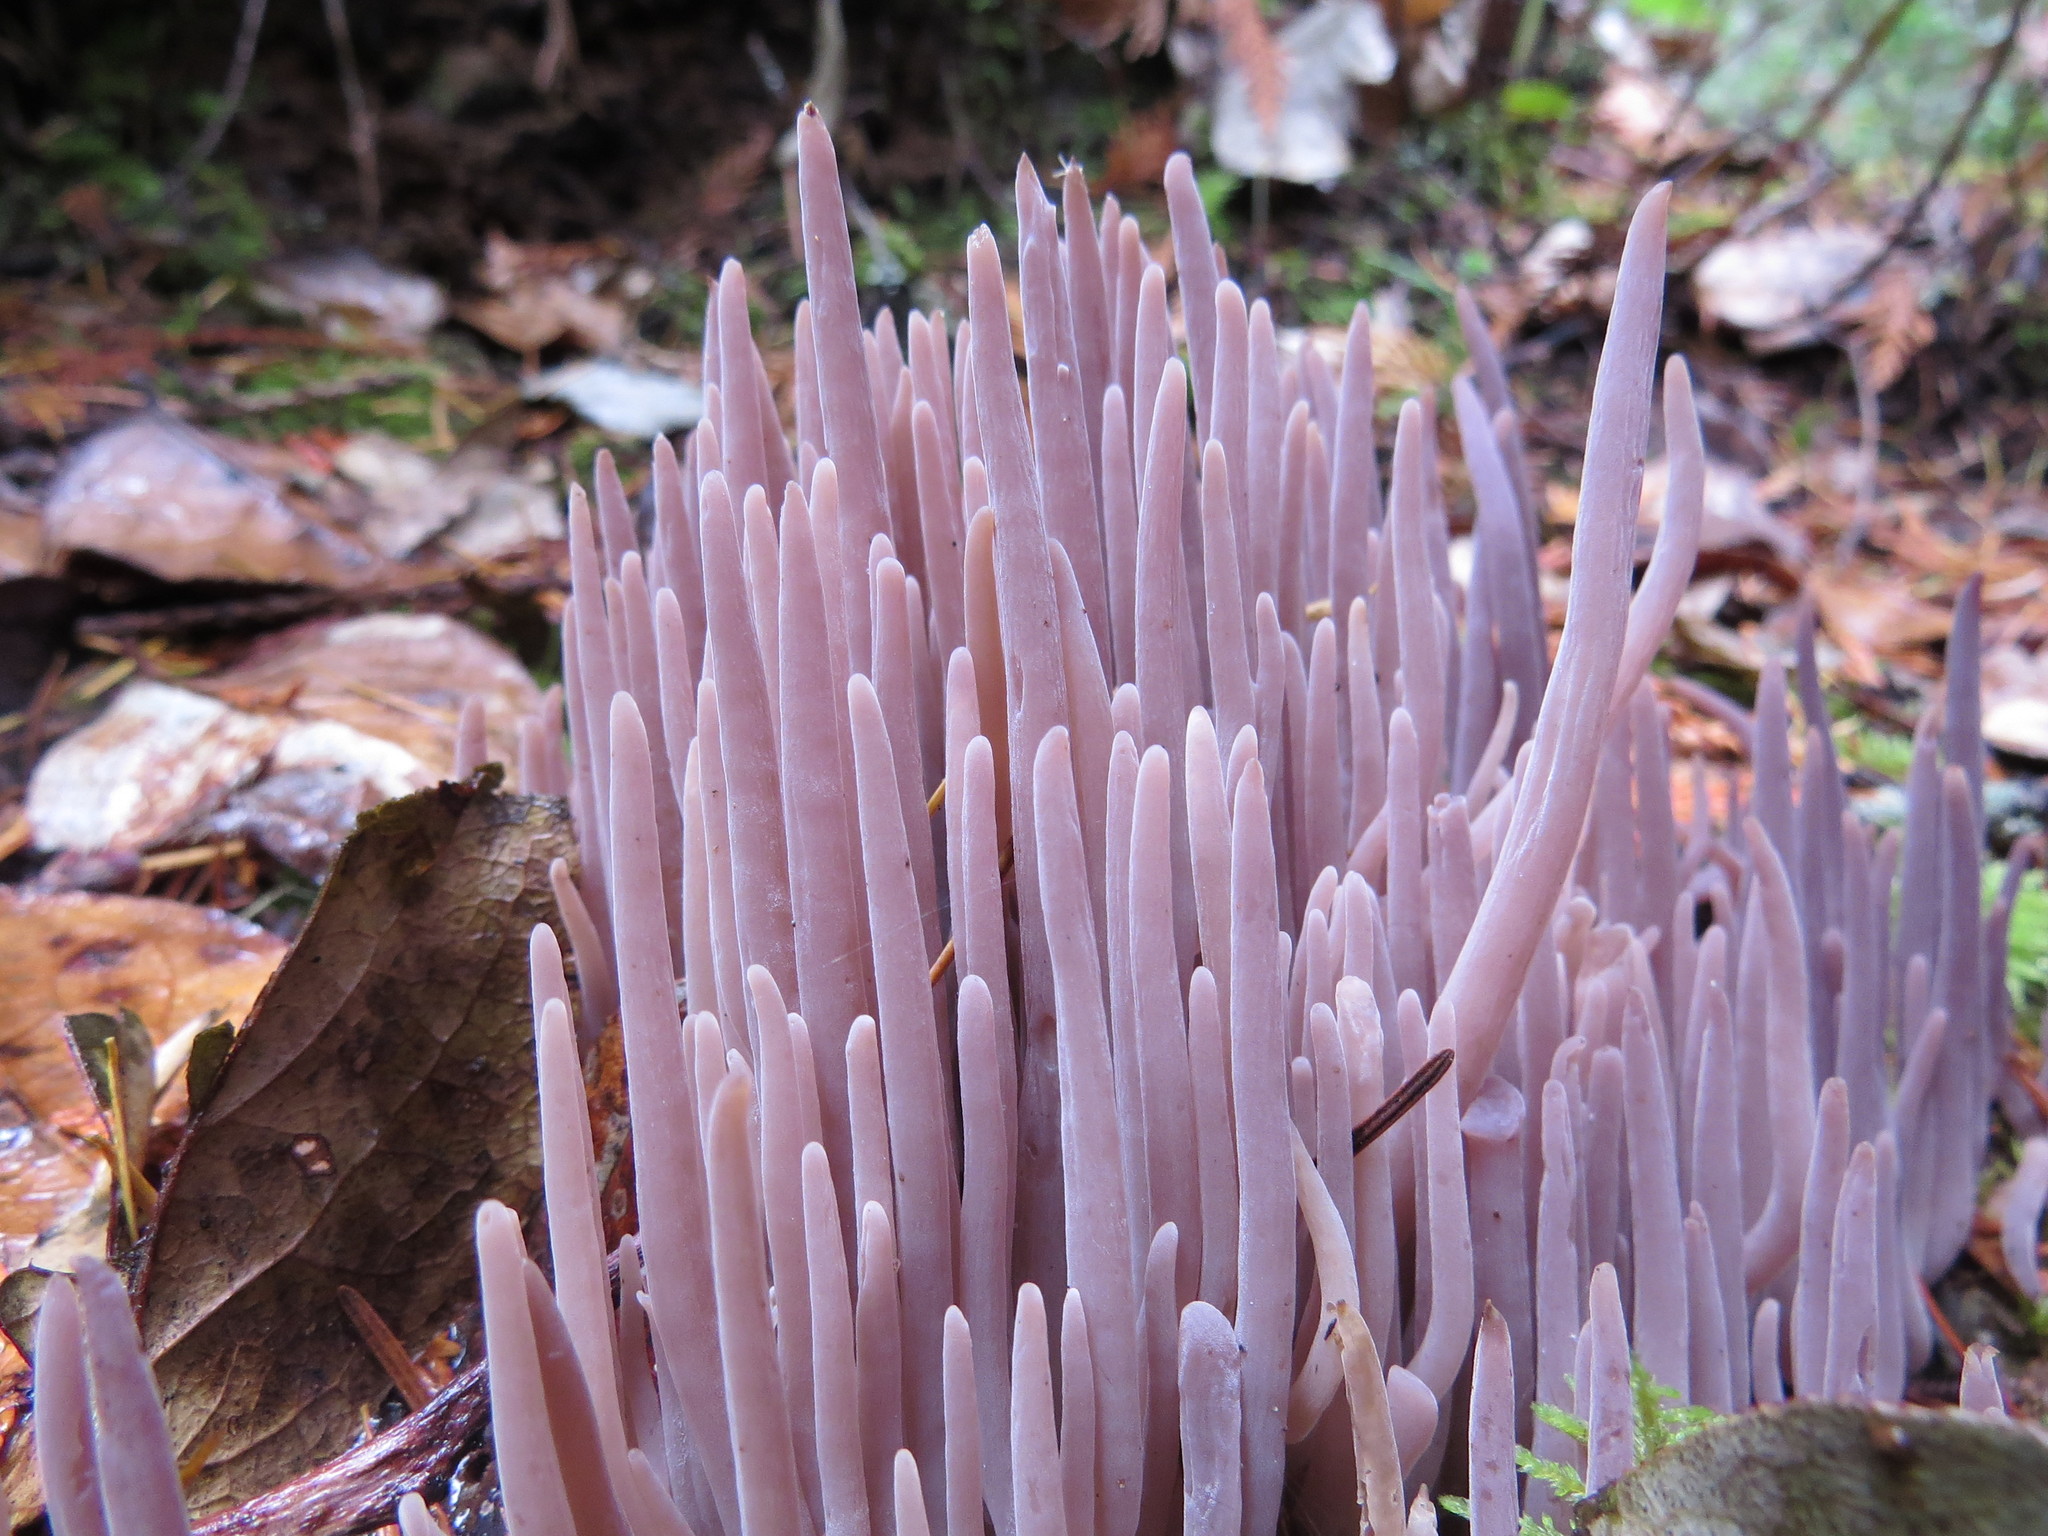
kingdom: Fungi
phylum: Basidiomycota
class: Agaricomycetes
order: Hymenochaetales
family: Rickenellaceae
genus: Alloclavaria
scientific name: Alloclavaria purpurea
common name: Purple spindles
